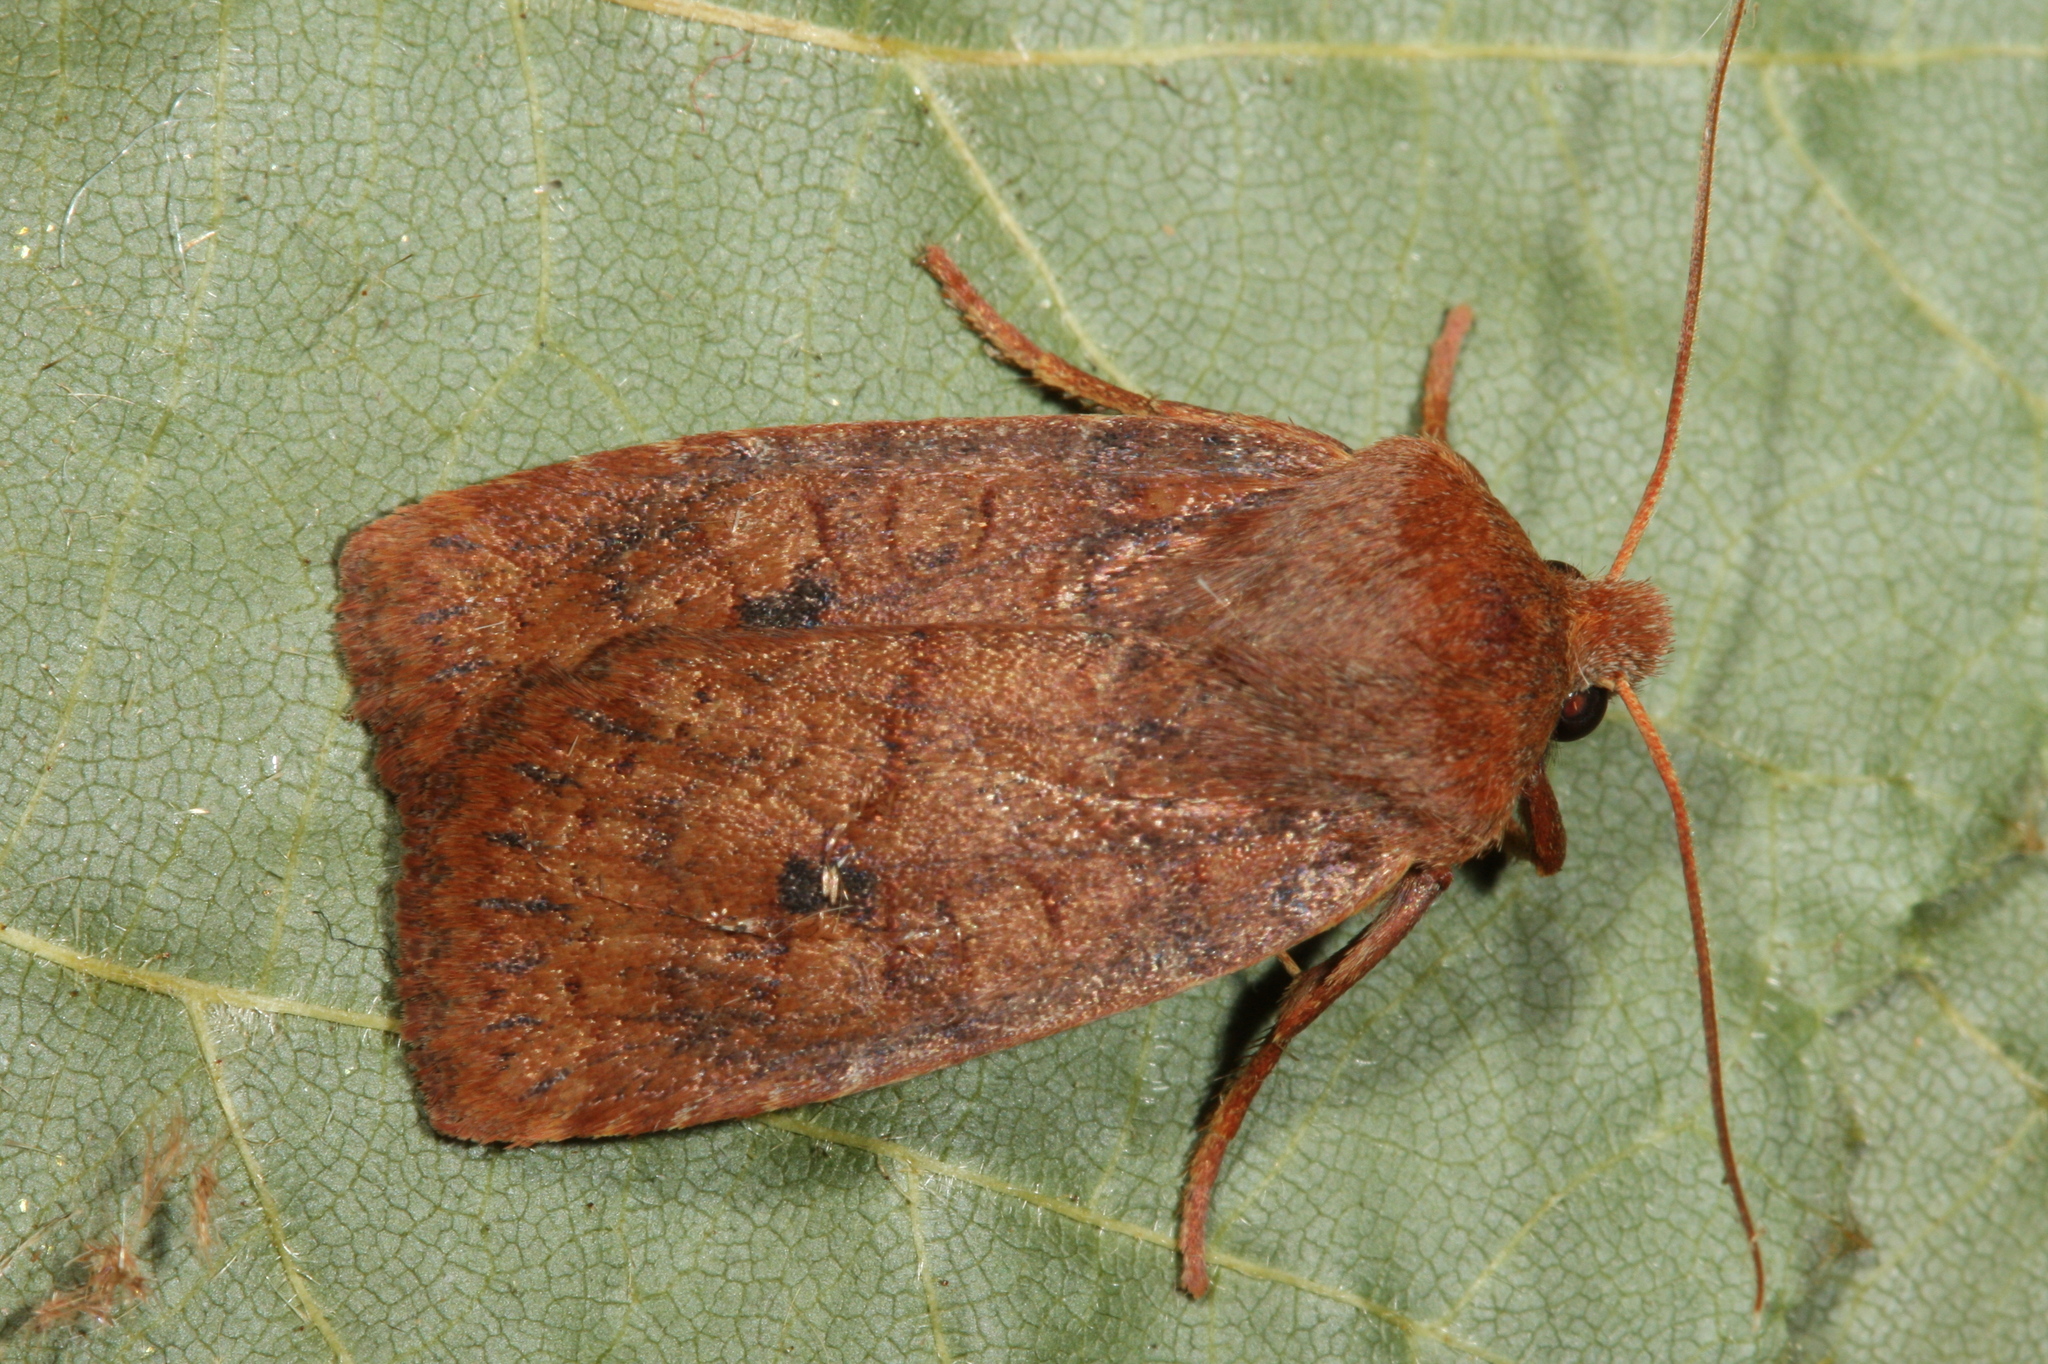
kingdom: Animalia
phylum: Arthropoda
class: Insecta
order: Lepidoptera
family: Noctuidae
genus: Conistra
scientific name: Conistra vaccinii
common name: Chestnut
